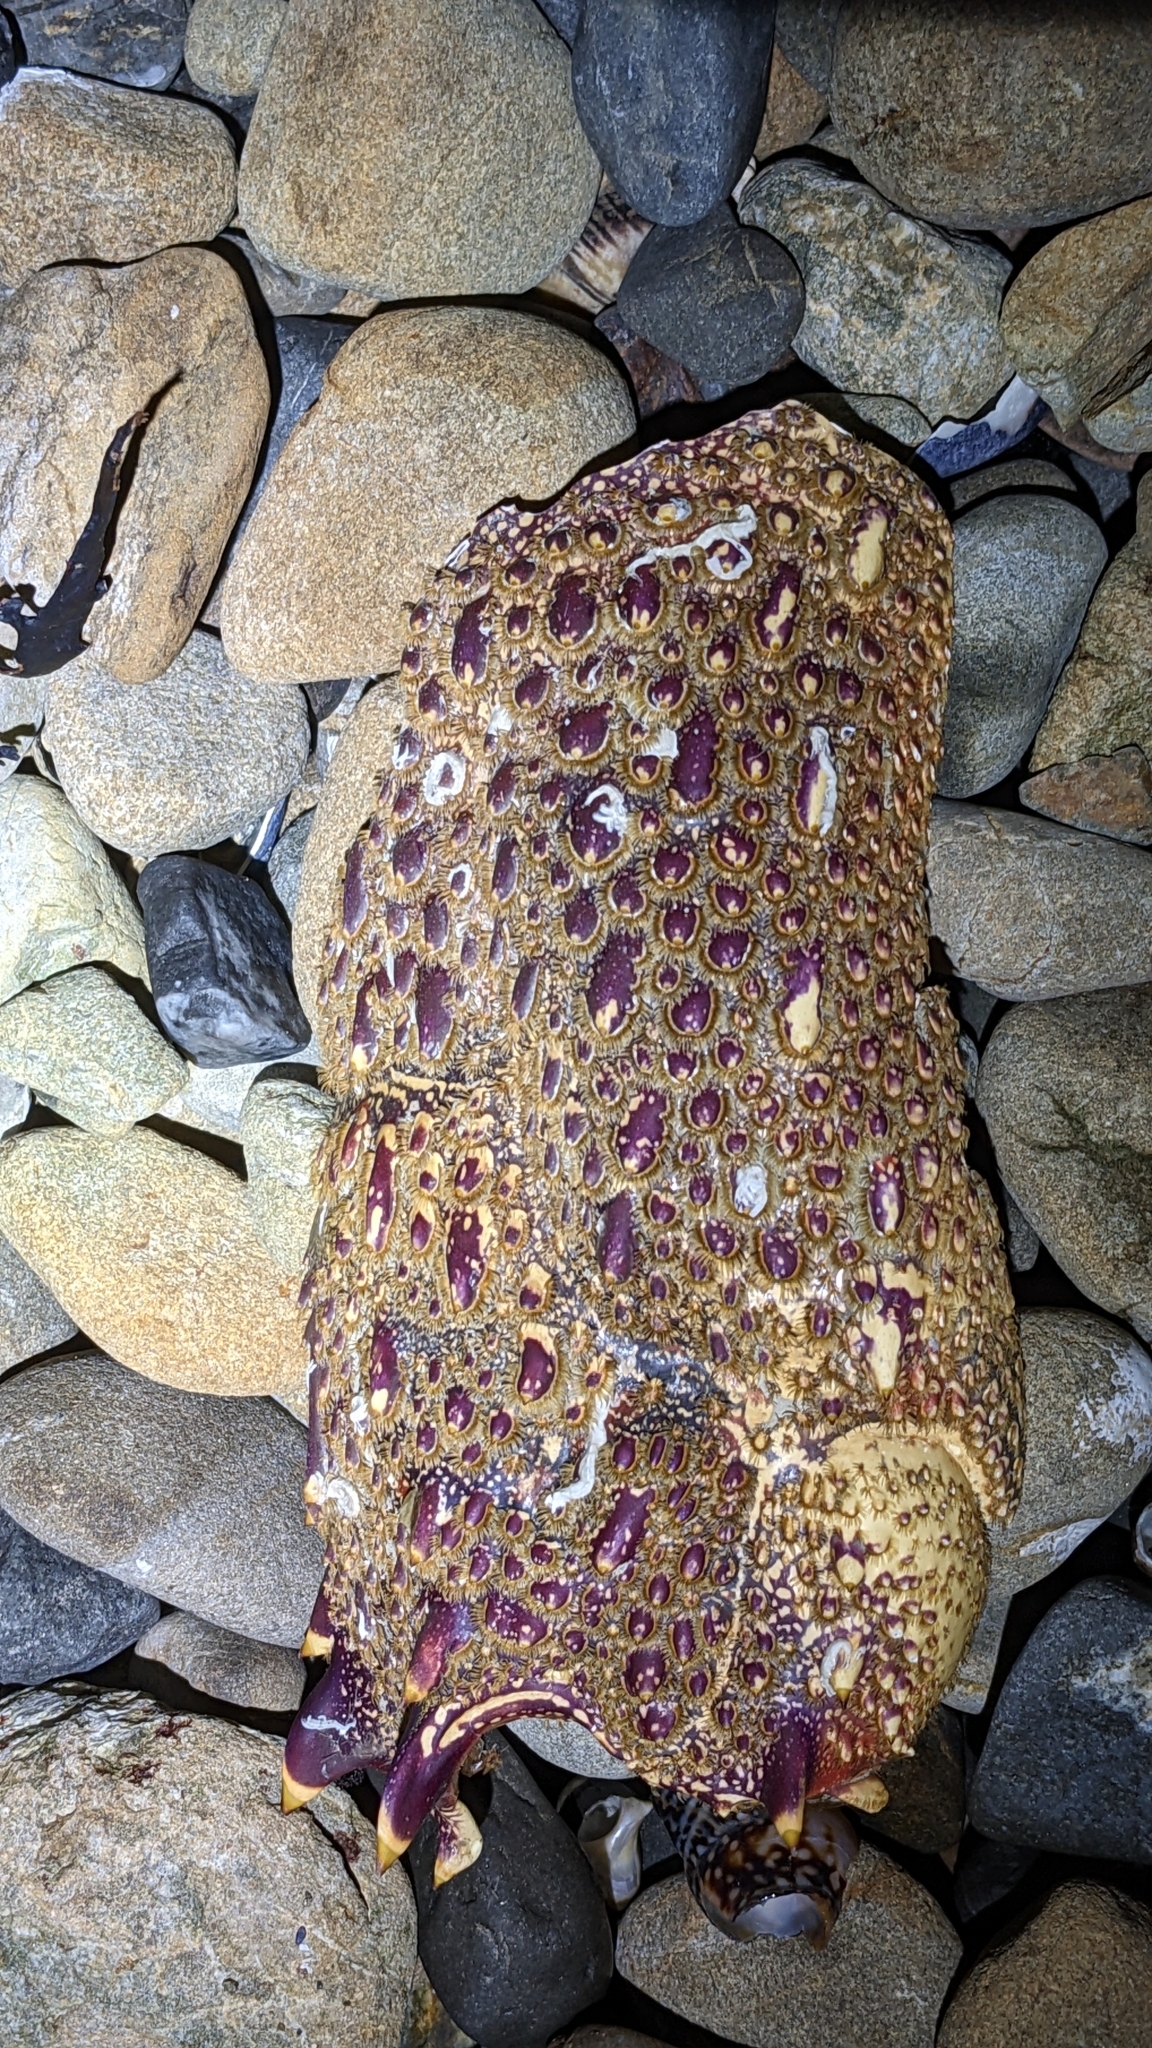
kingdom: Animalia
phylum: Arthropoda
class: Malacostraca
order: Decapoda
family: Palinuridae
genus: Jasus
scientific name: Jasus edwardsii
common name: Red rock lobster
